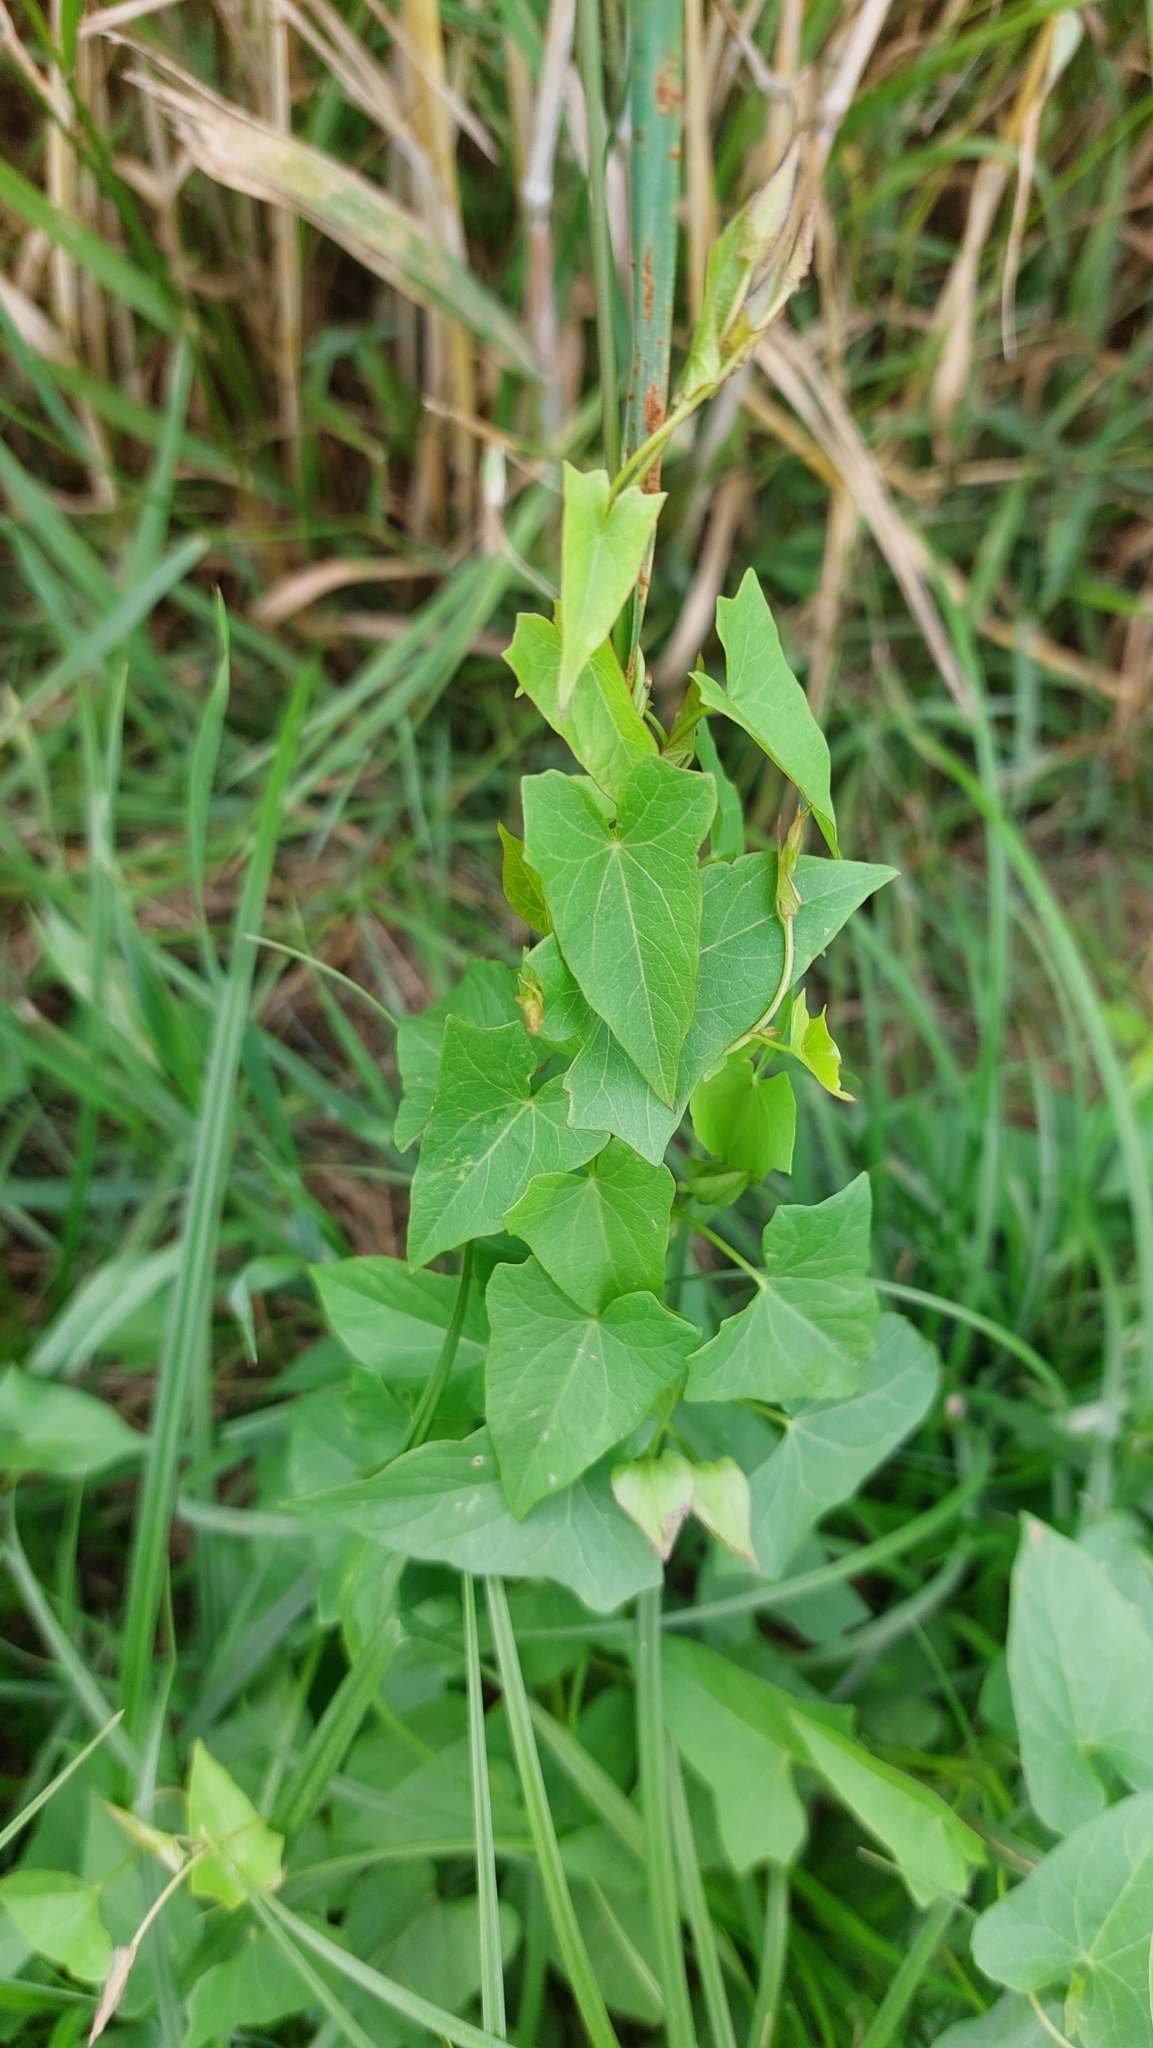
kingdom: Plantae
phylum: Tracheophyta
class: Magnoliopsida
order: Solanales
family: Convolvulaceae
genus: Calystegia
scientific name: Calystegia sepium
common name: Hedge bindweed
